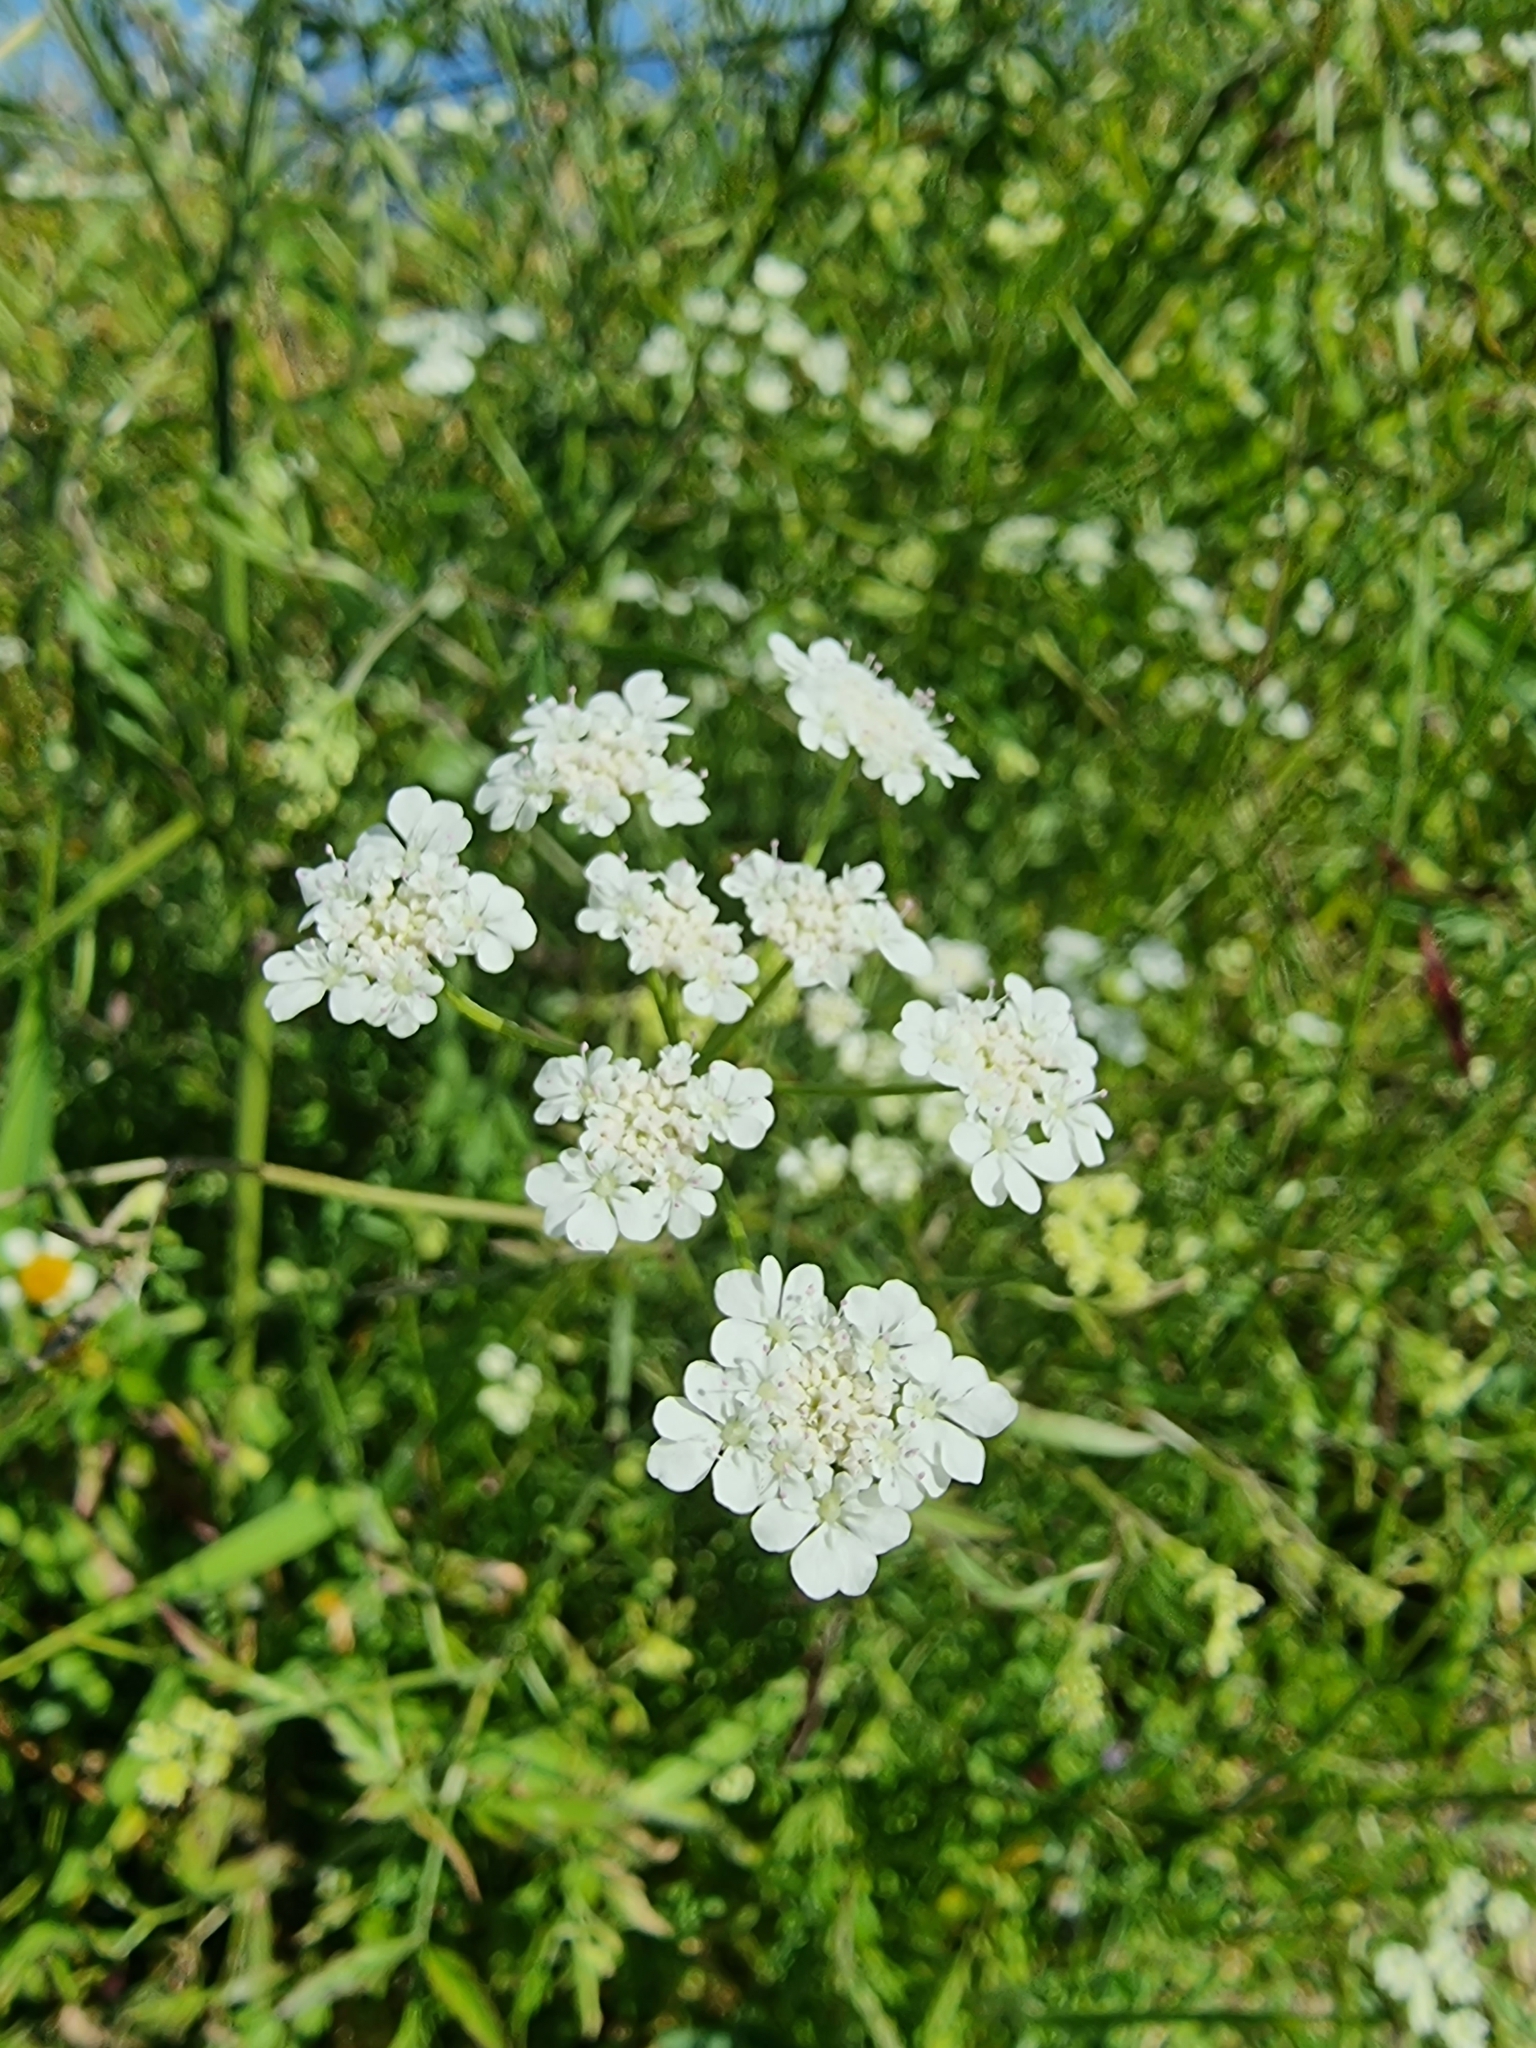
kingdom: Plantae
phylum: Tracheophyta
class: Magnoliopsida
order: Apiales
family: Apiaceae
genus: Torilis
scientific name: Torilis arvensis
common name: Spreading hedge-parsley
